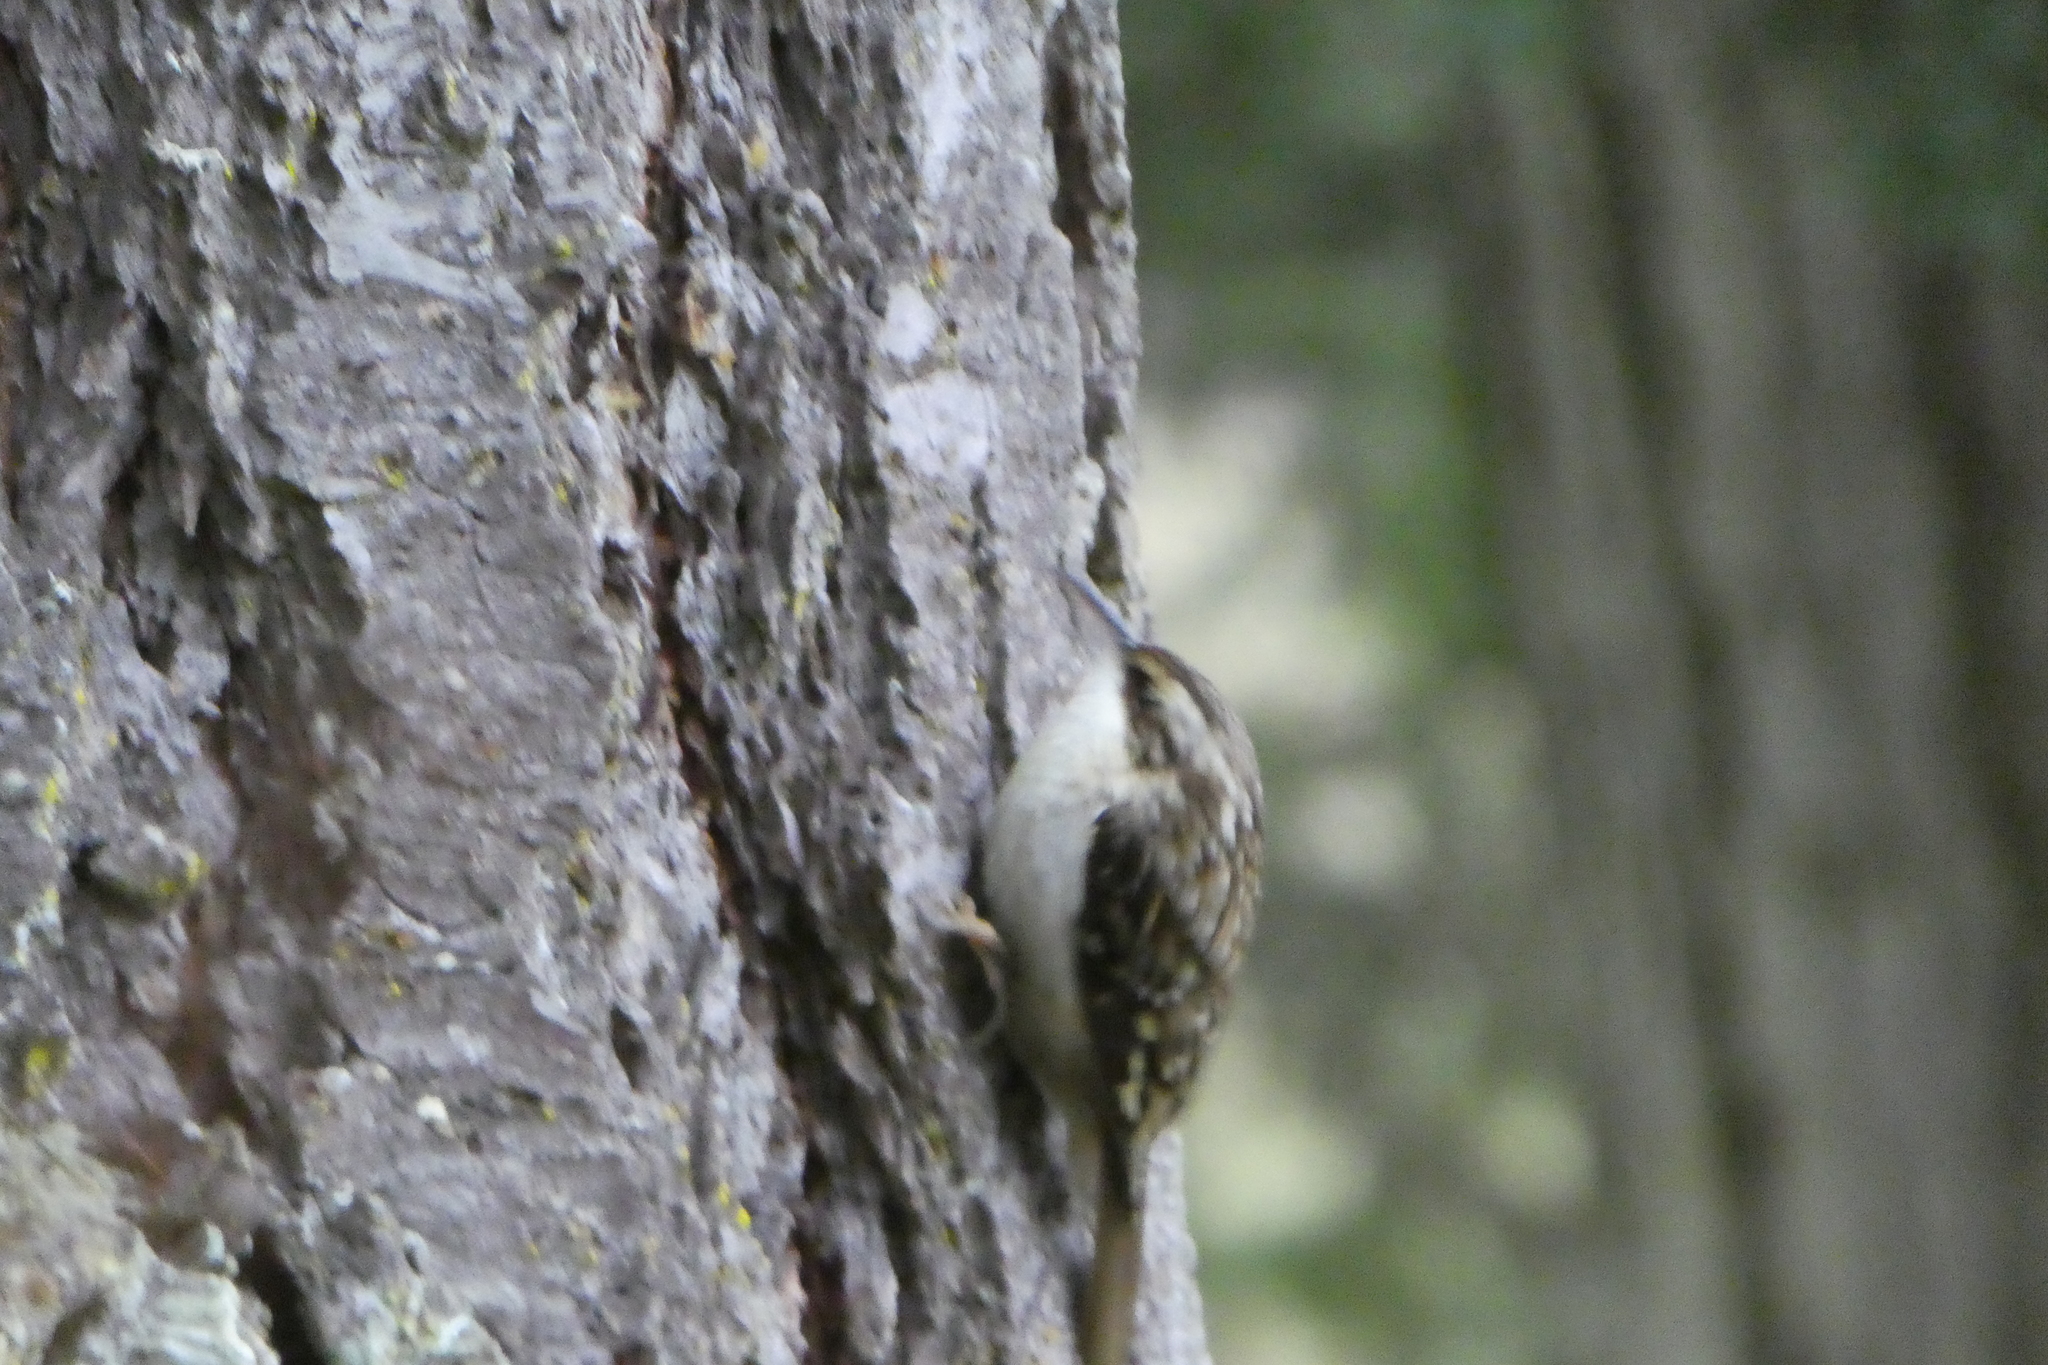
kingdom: Animalia
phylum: Chordata
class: Aves
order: Passeriformes
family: Certhiidae
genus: Certhia
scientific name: Certhia americana
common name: Brown creeper
